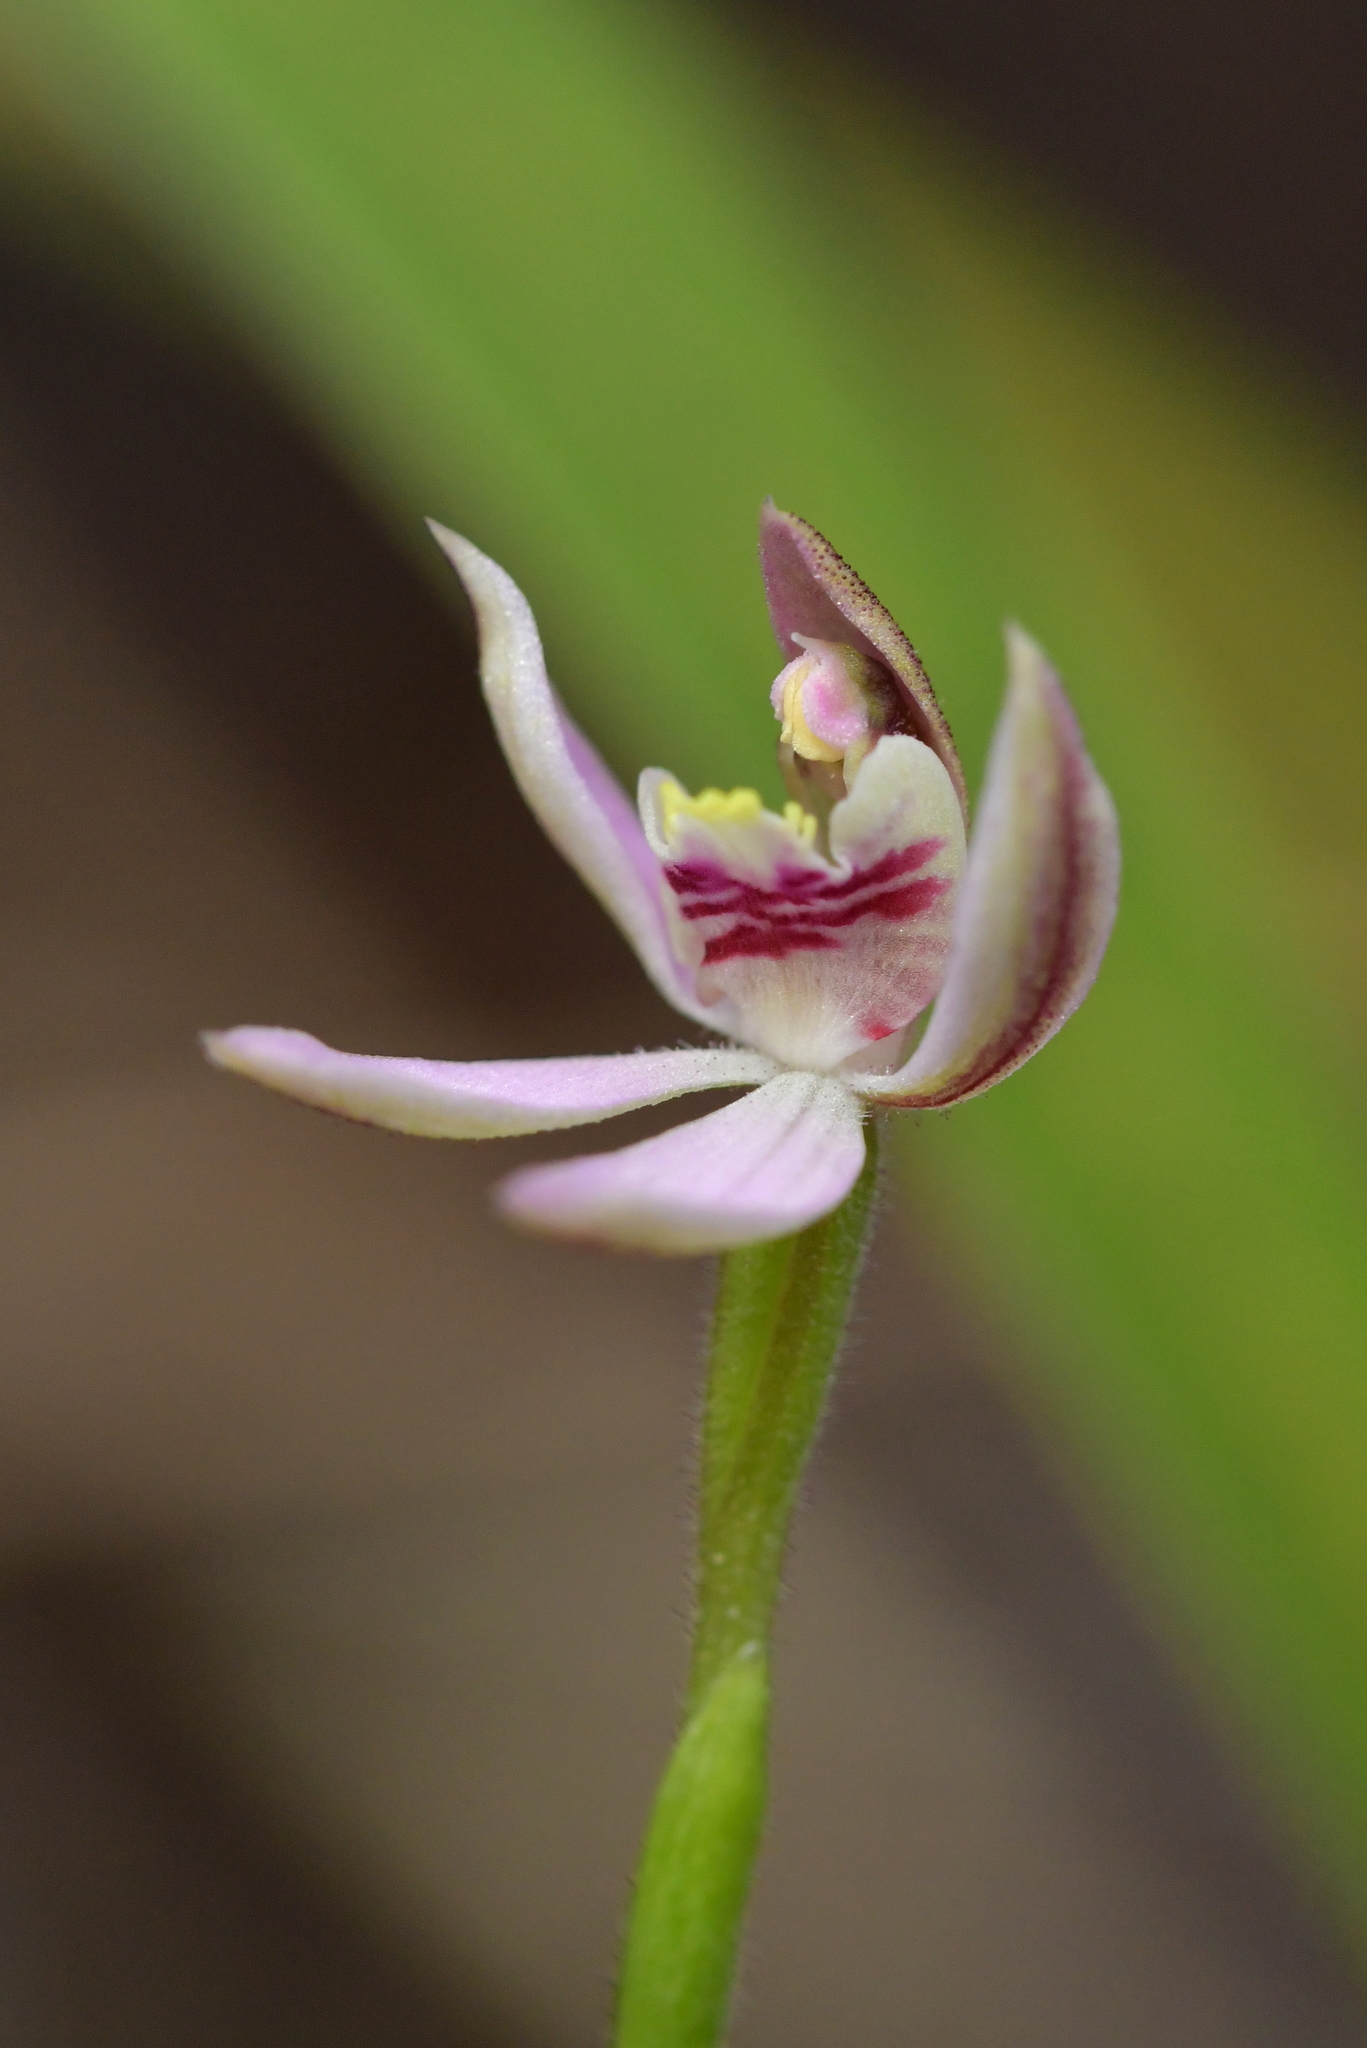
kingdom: Plantae
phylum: Tracheophyta
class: Liliopsida
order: Asparagales
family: Orchidaceae
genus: Caladenia
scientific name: Caladenia variegata
